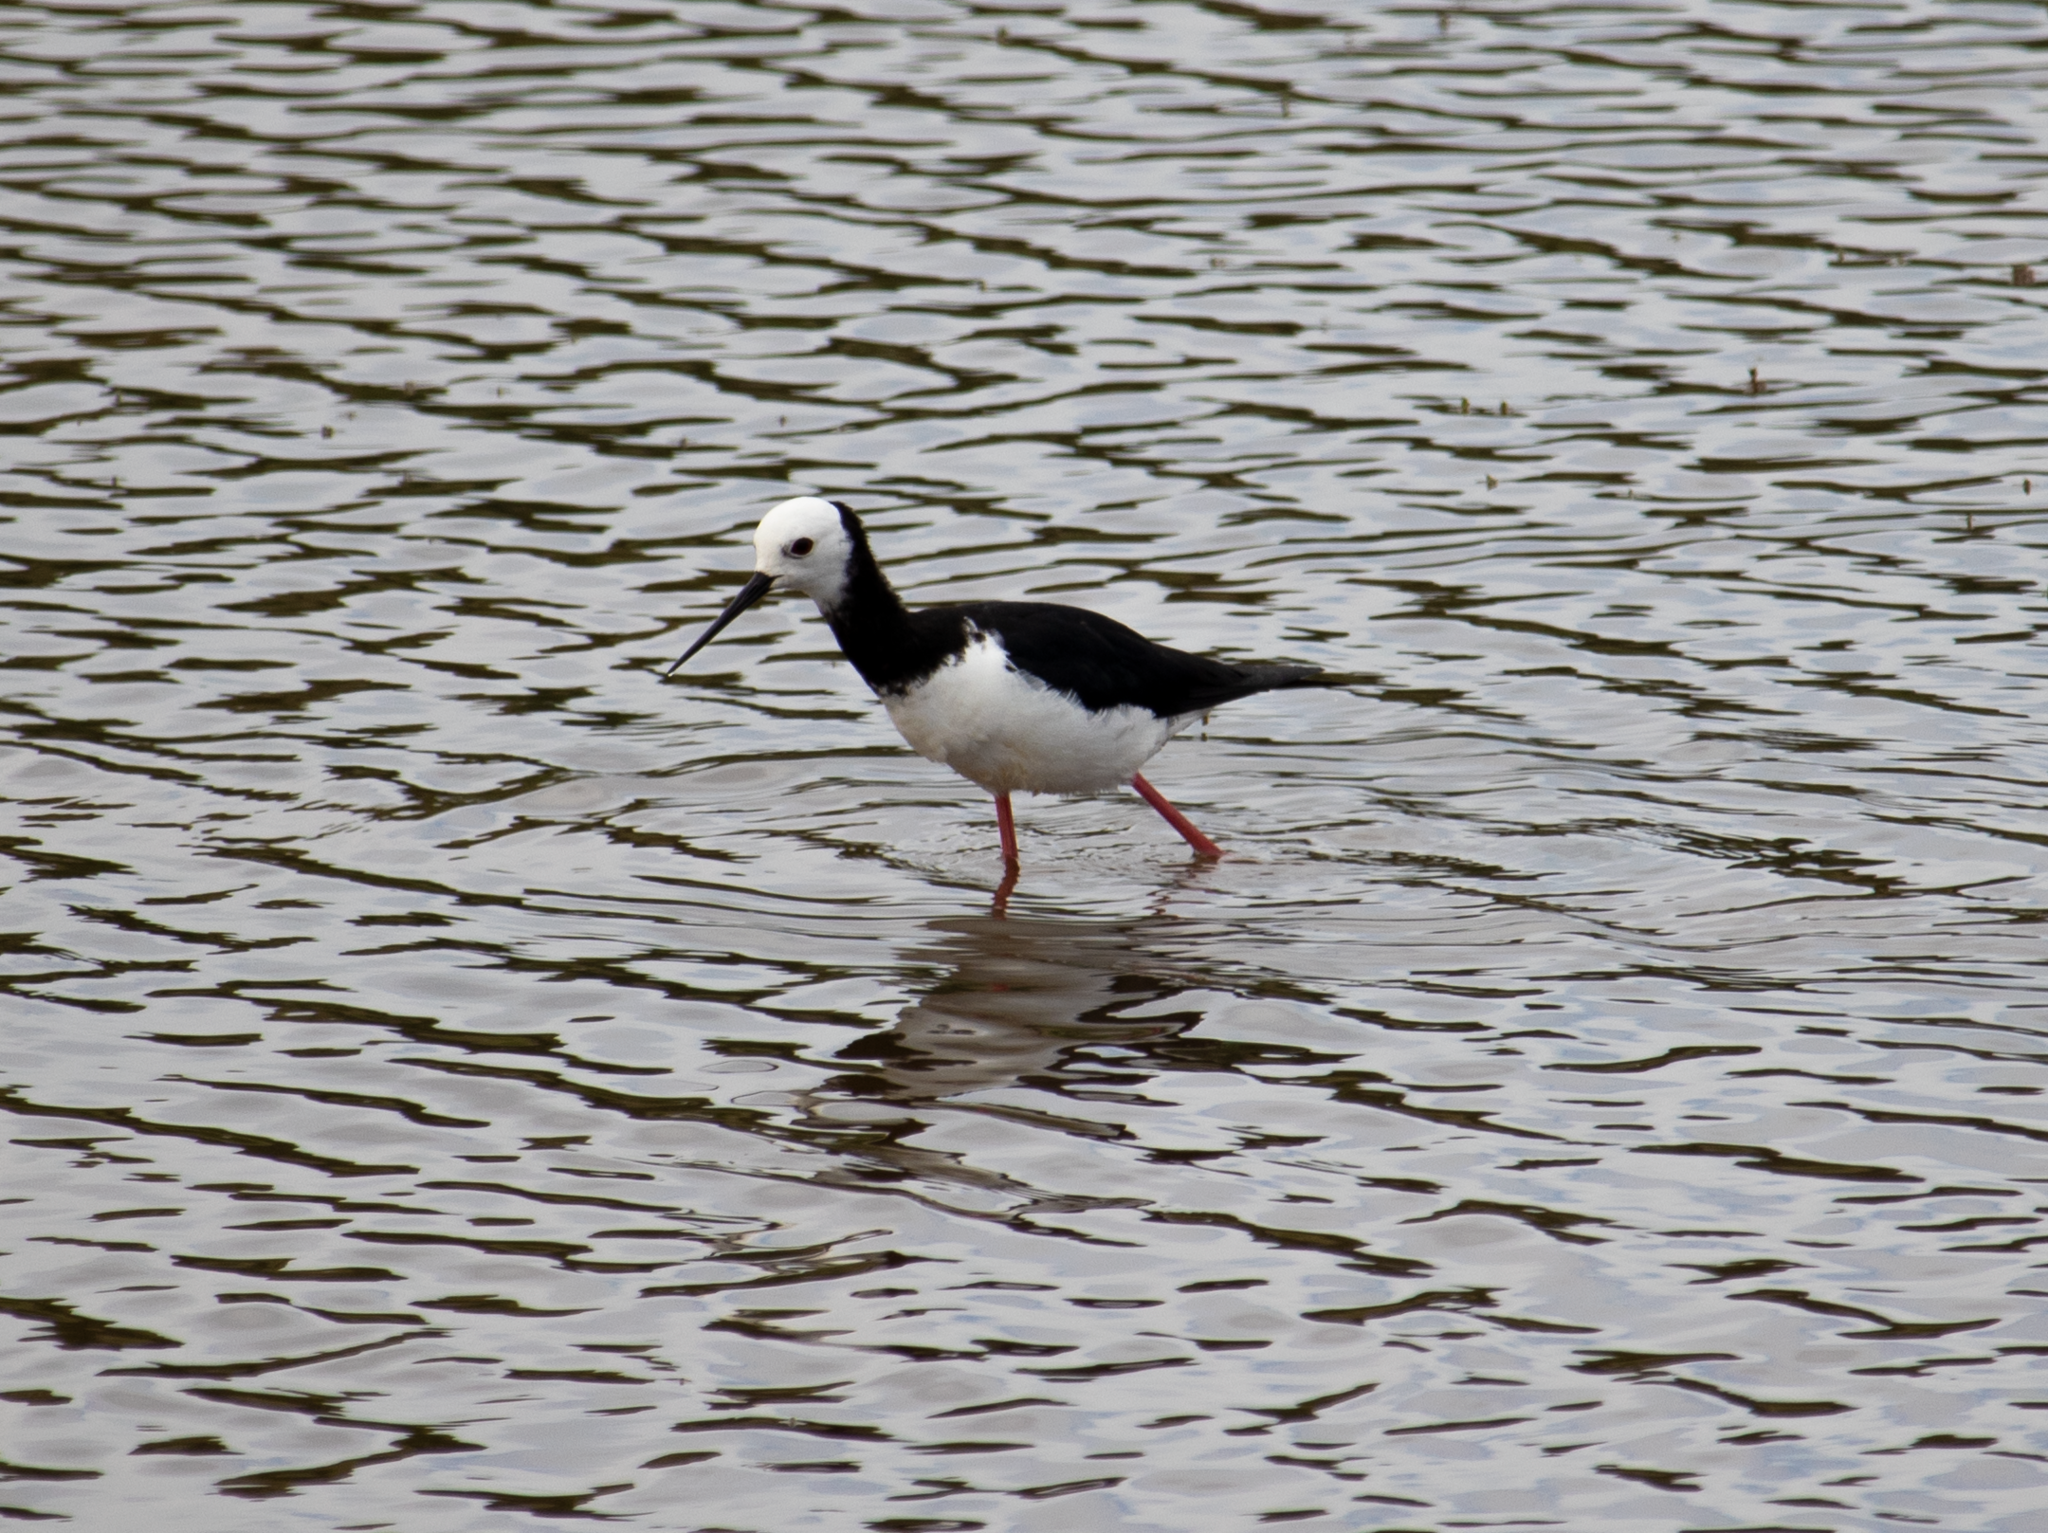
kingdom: Animalia
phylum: Chordata
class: Aves
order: Charadriiformes
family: Recurvirostridae
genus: Himantopus
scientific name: Himantopus
